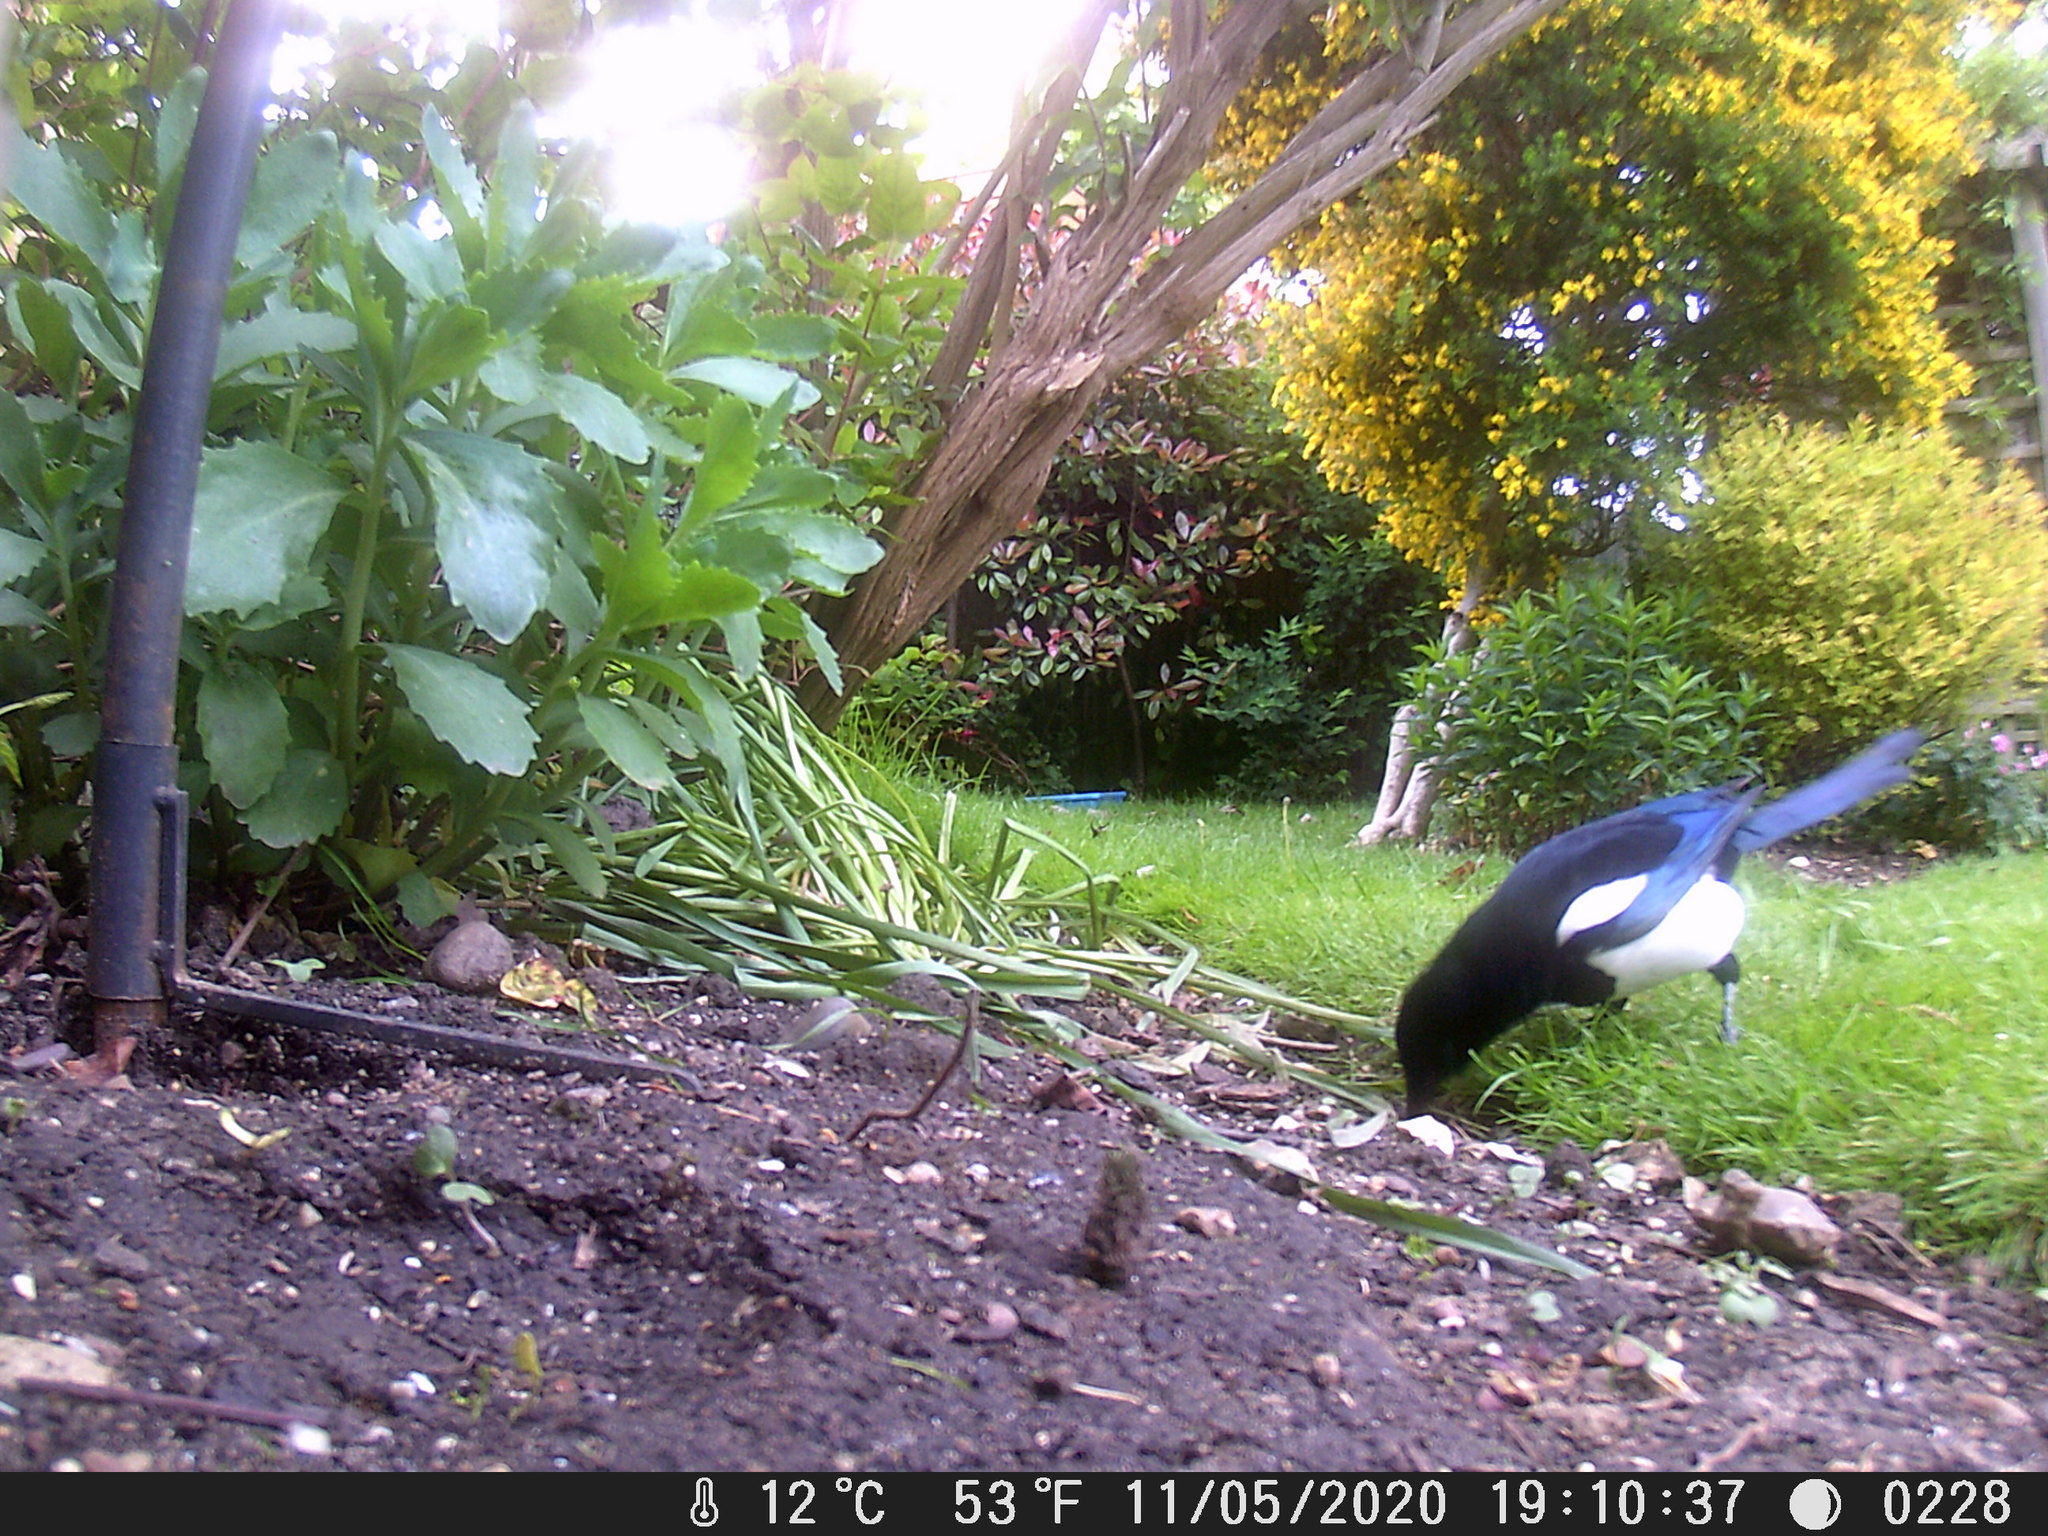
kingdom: Animalia
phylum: Chordata
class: Aves
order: Passeriformes
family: Corvidae
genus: Pica
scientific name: Pica pica
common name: Eurasian magpie
